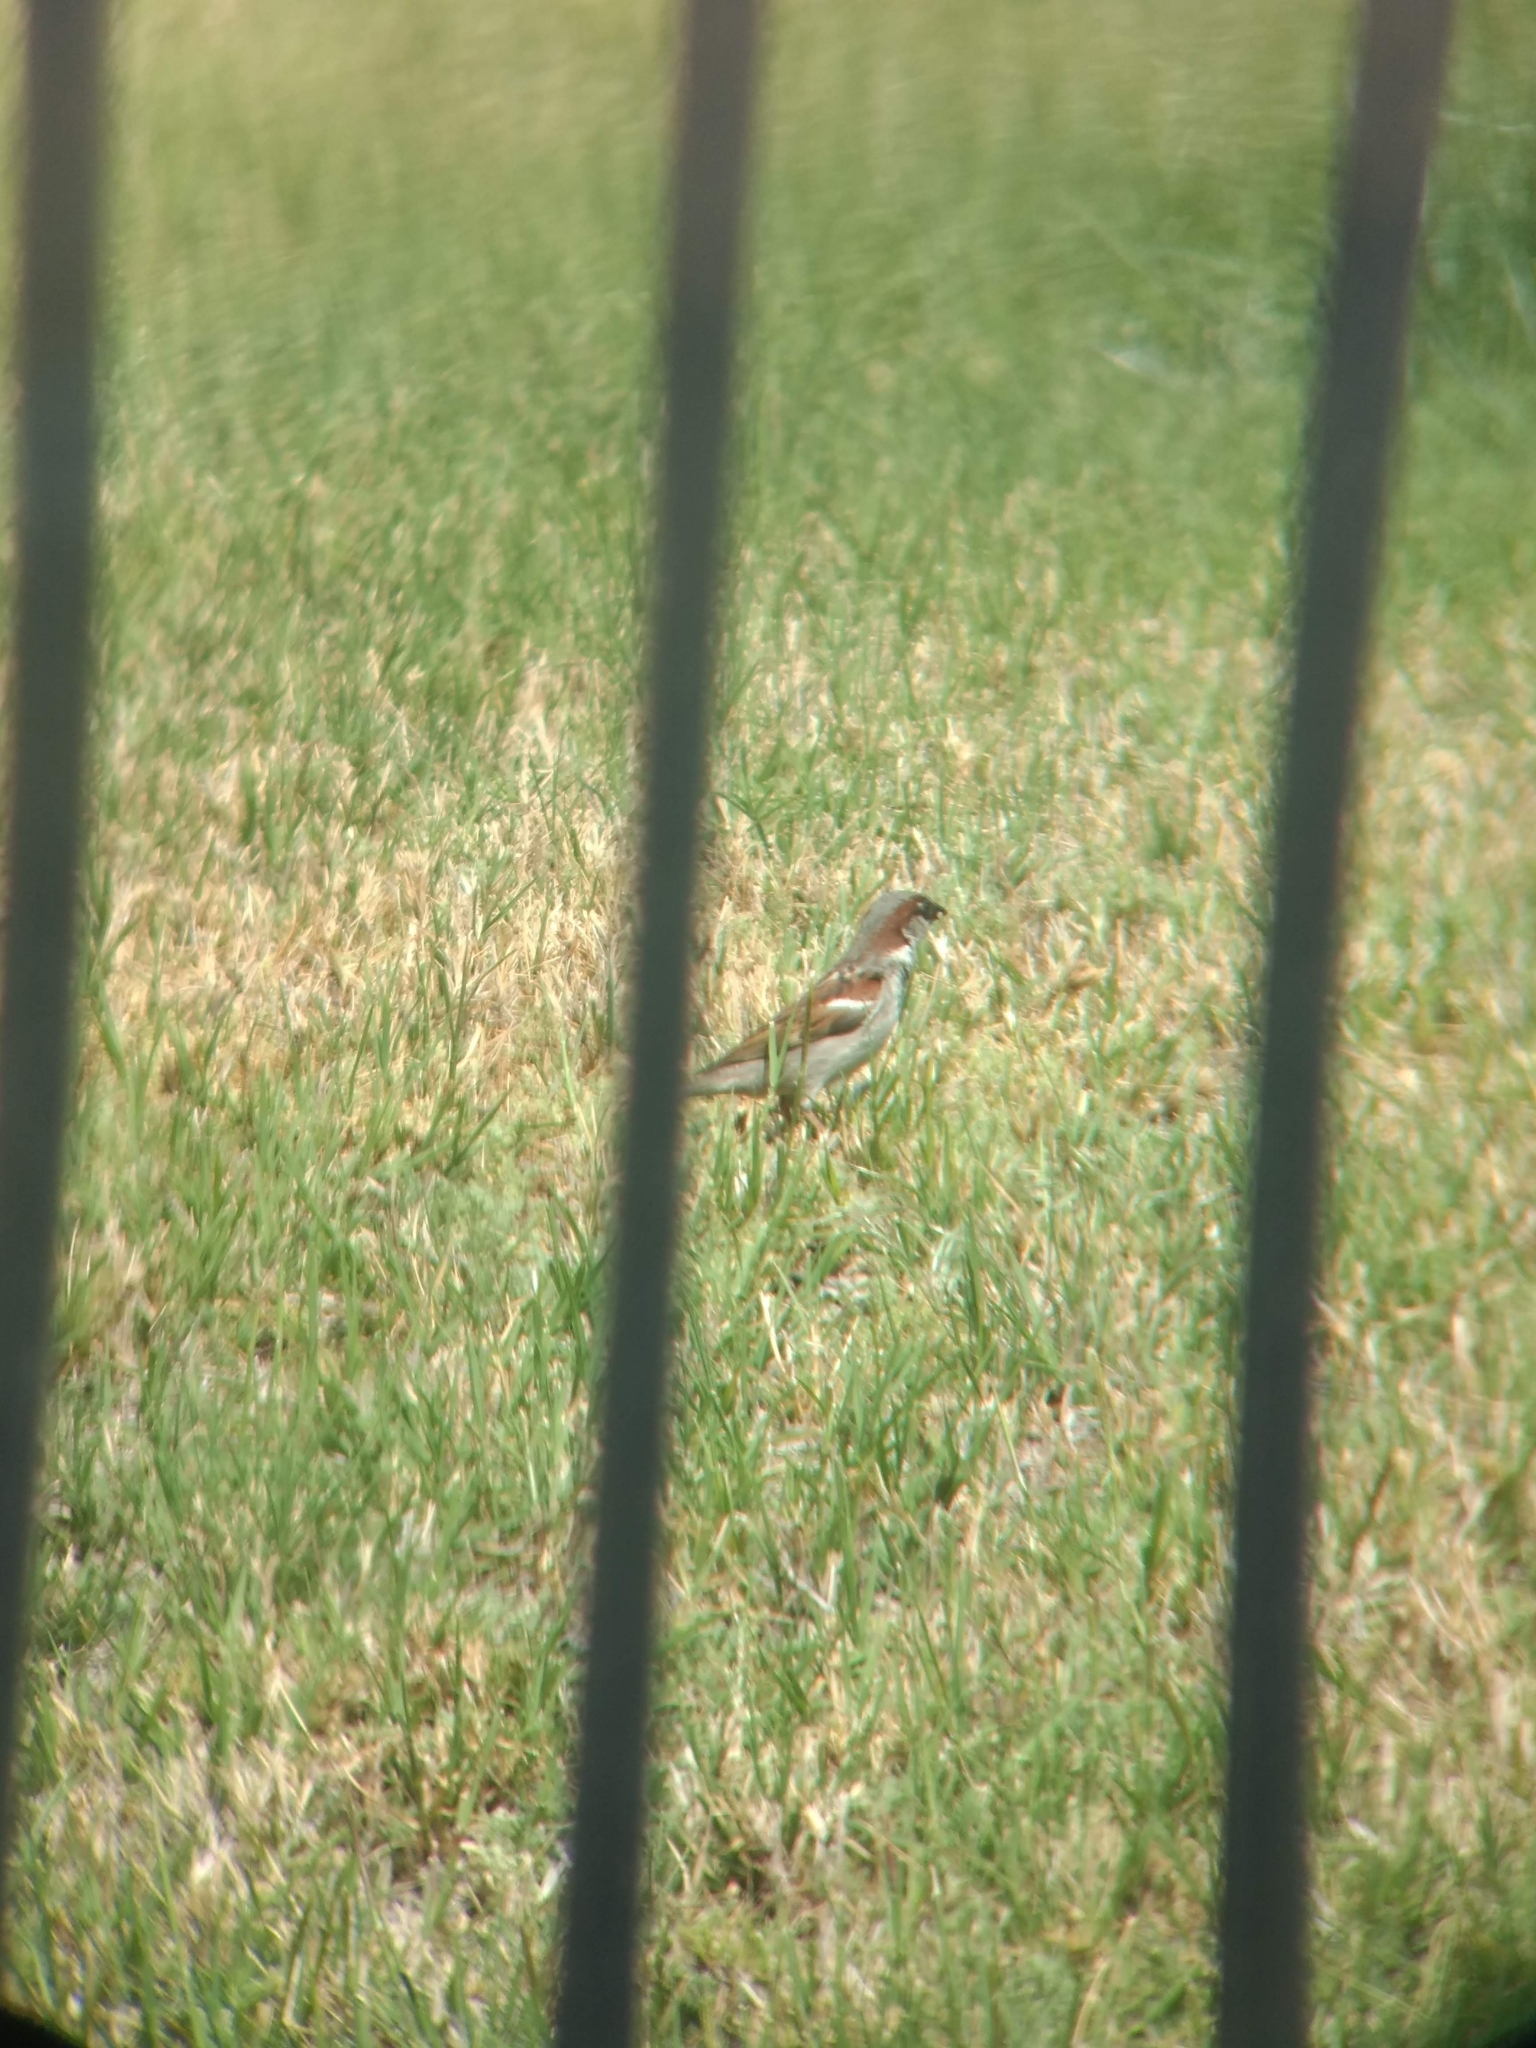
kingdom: Animalia
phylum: Chordata
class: Aves
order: Passeriformes
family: Passeridae
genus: Passer
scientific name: Passer domesticus
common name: House sparrow
